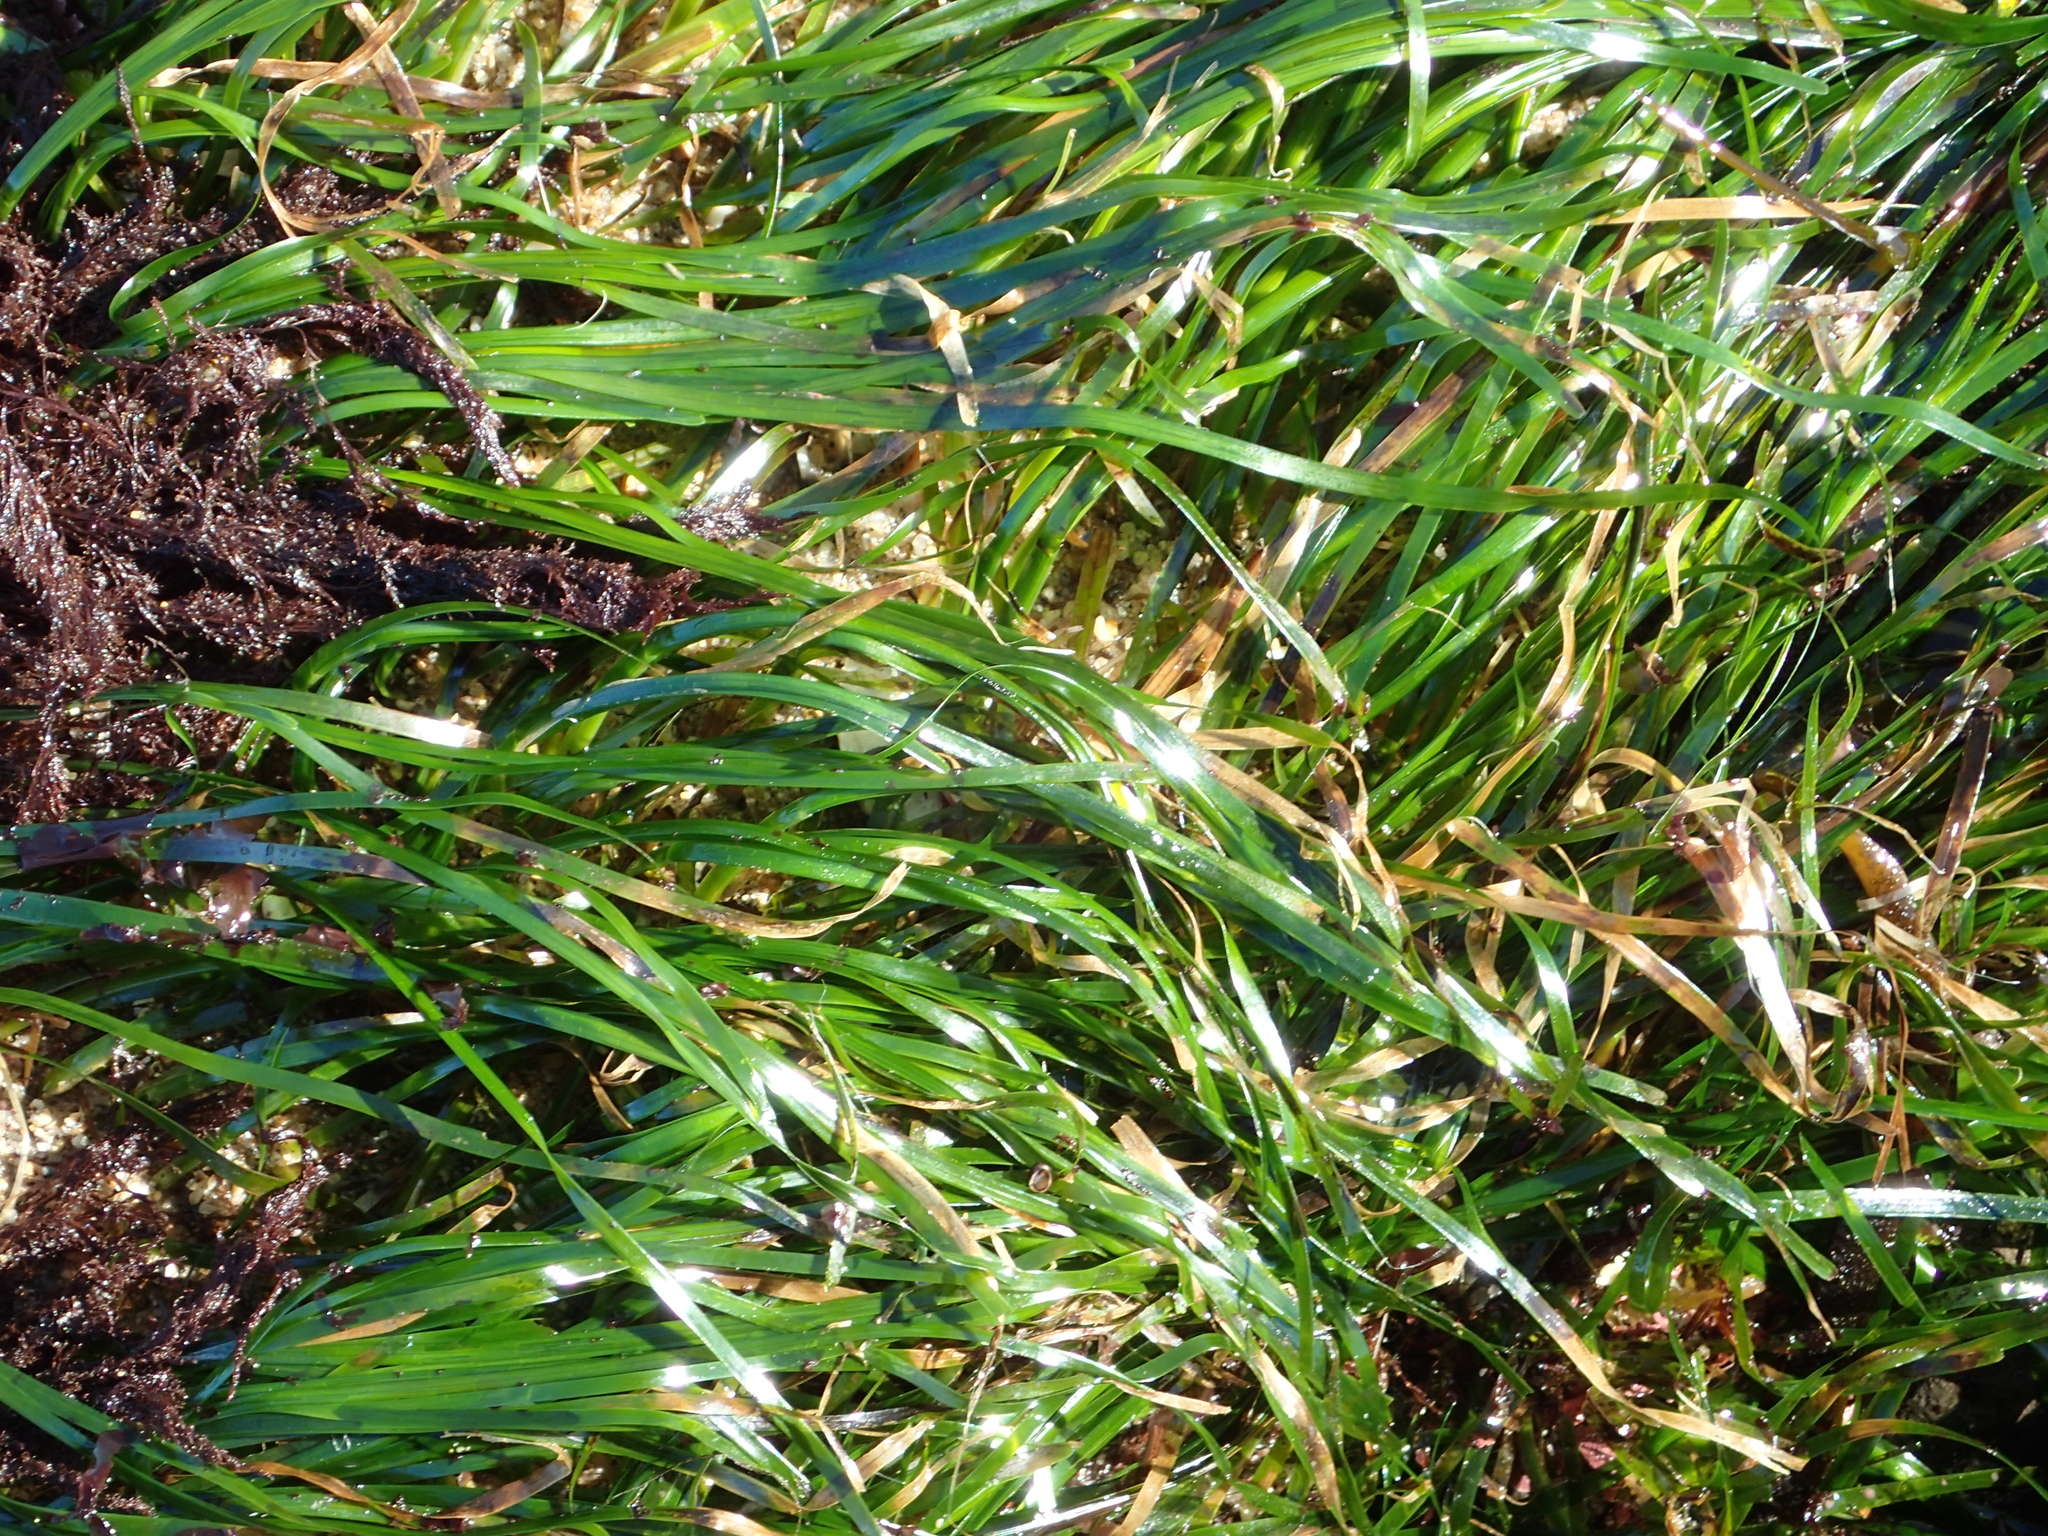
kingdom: Plantae
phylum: Tracheophyta
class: Liliopsida
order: Alismatales
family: Zosteraceae
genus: Phyllospadix
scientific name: Phyllospadix scouleri
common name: Species code: ps
